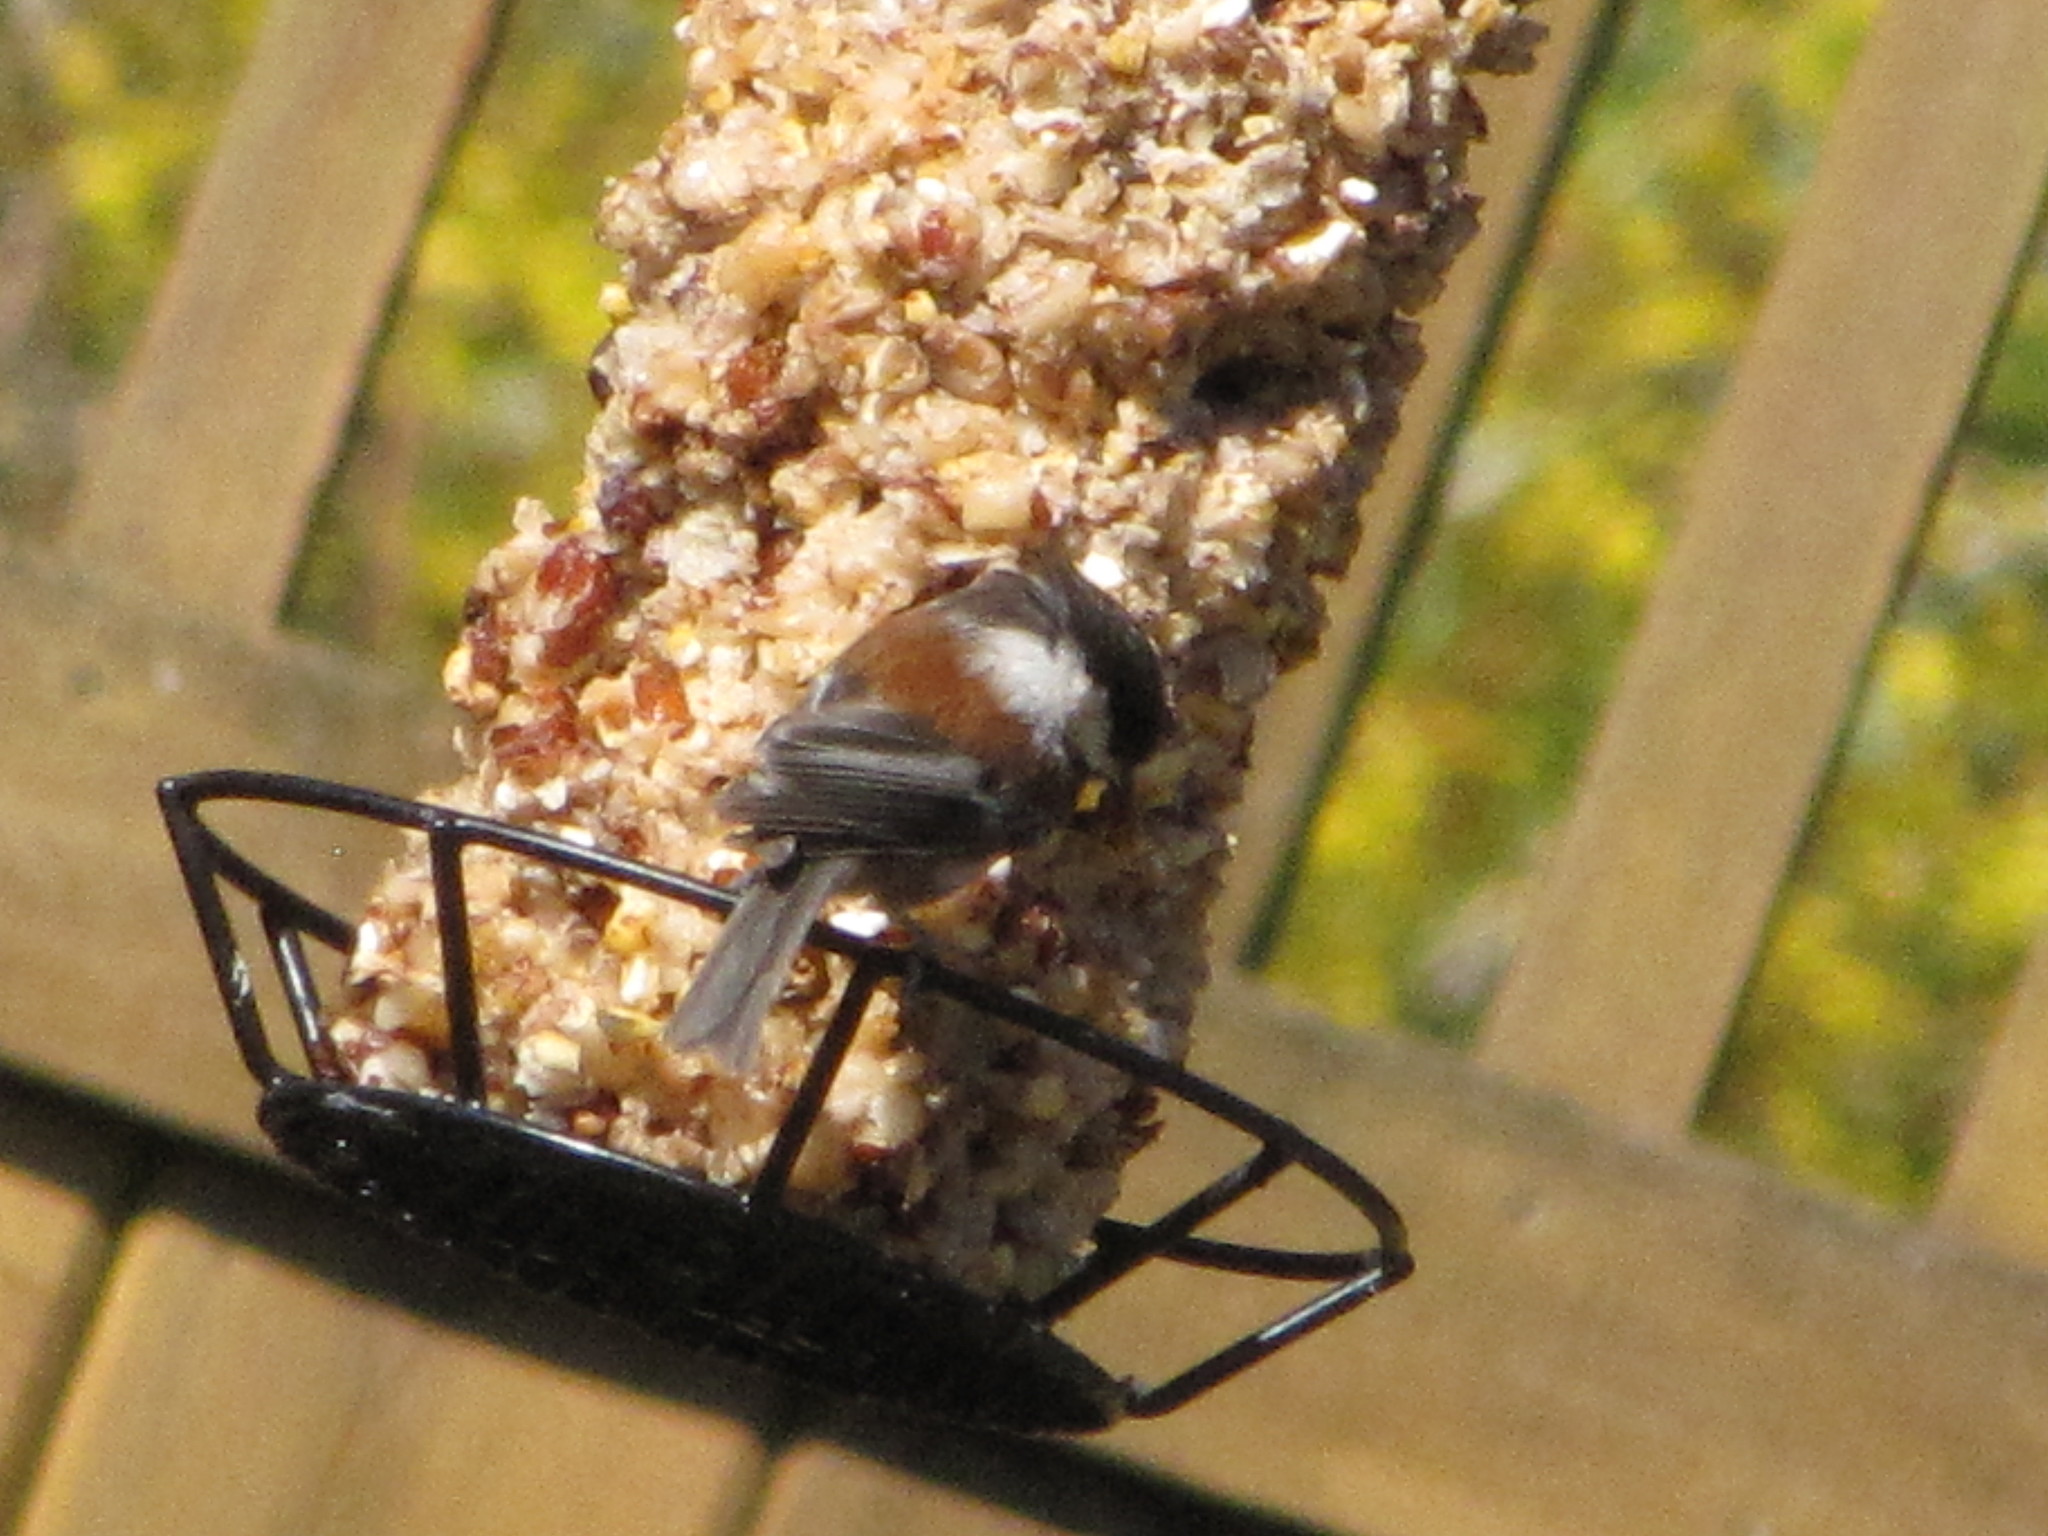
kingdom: Animalia
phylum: Chordata
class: Aves
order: Passeriformes
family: Paridae
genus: Poecile
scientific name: Poecile rufescens
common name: Chestnut-backed chickadee
